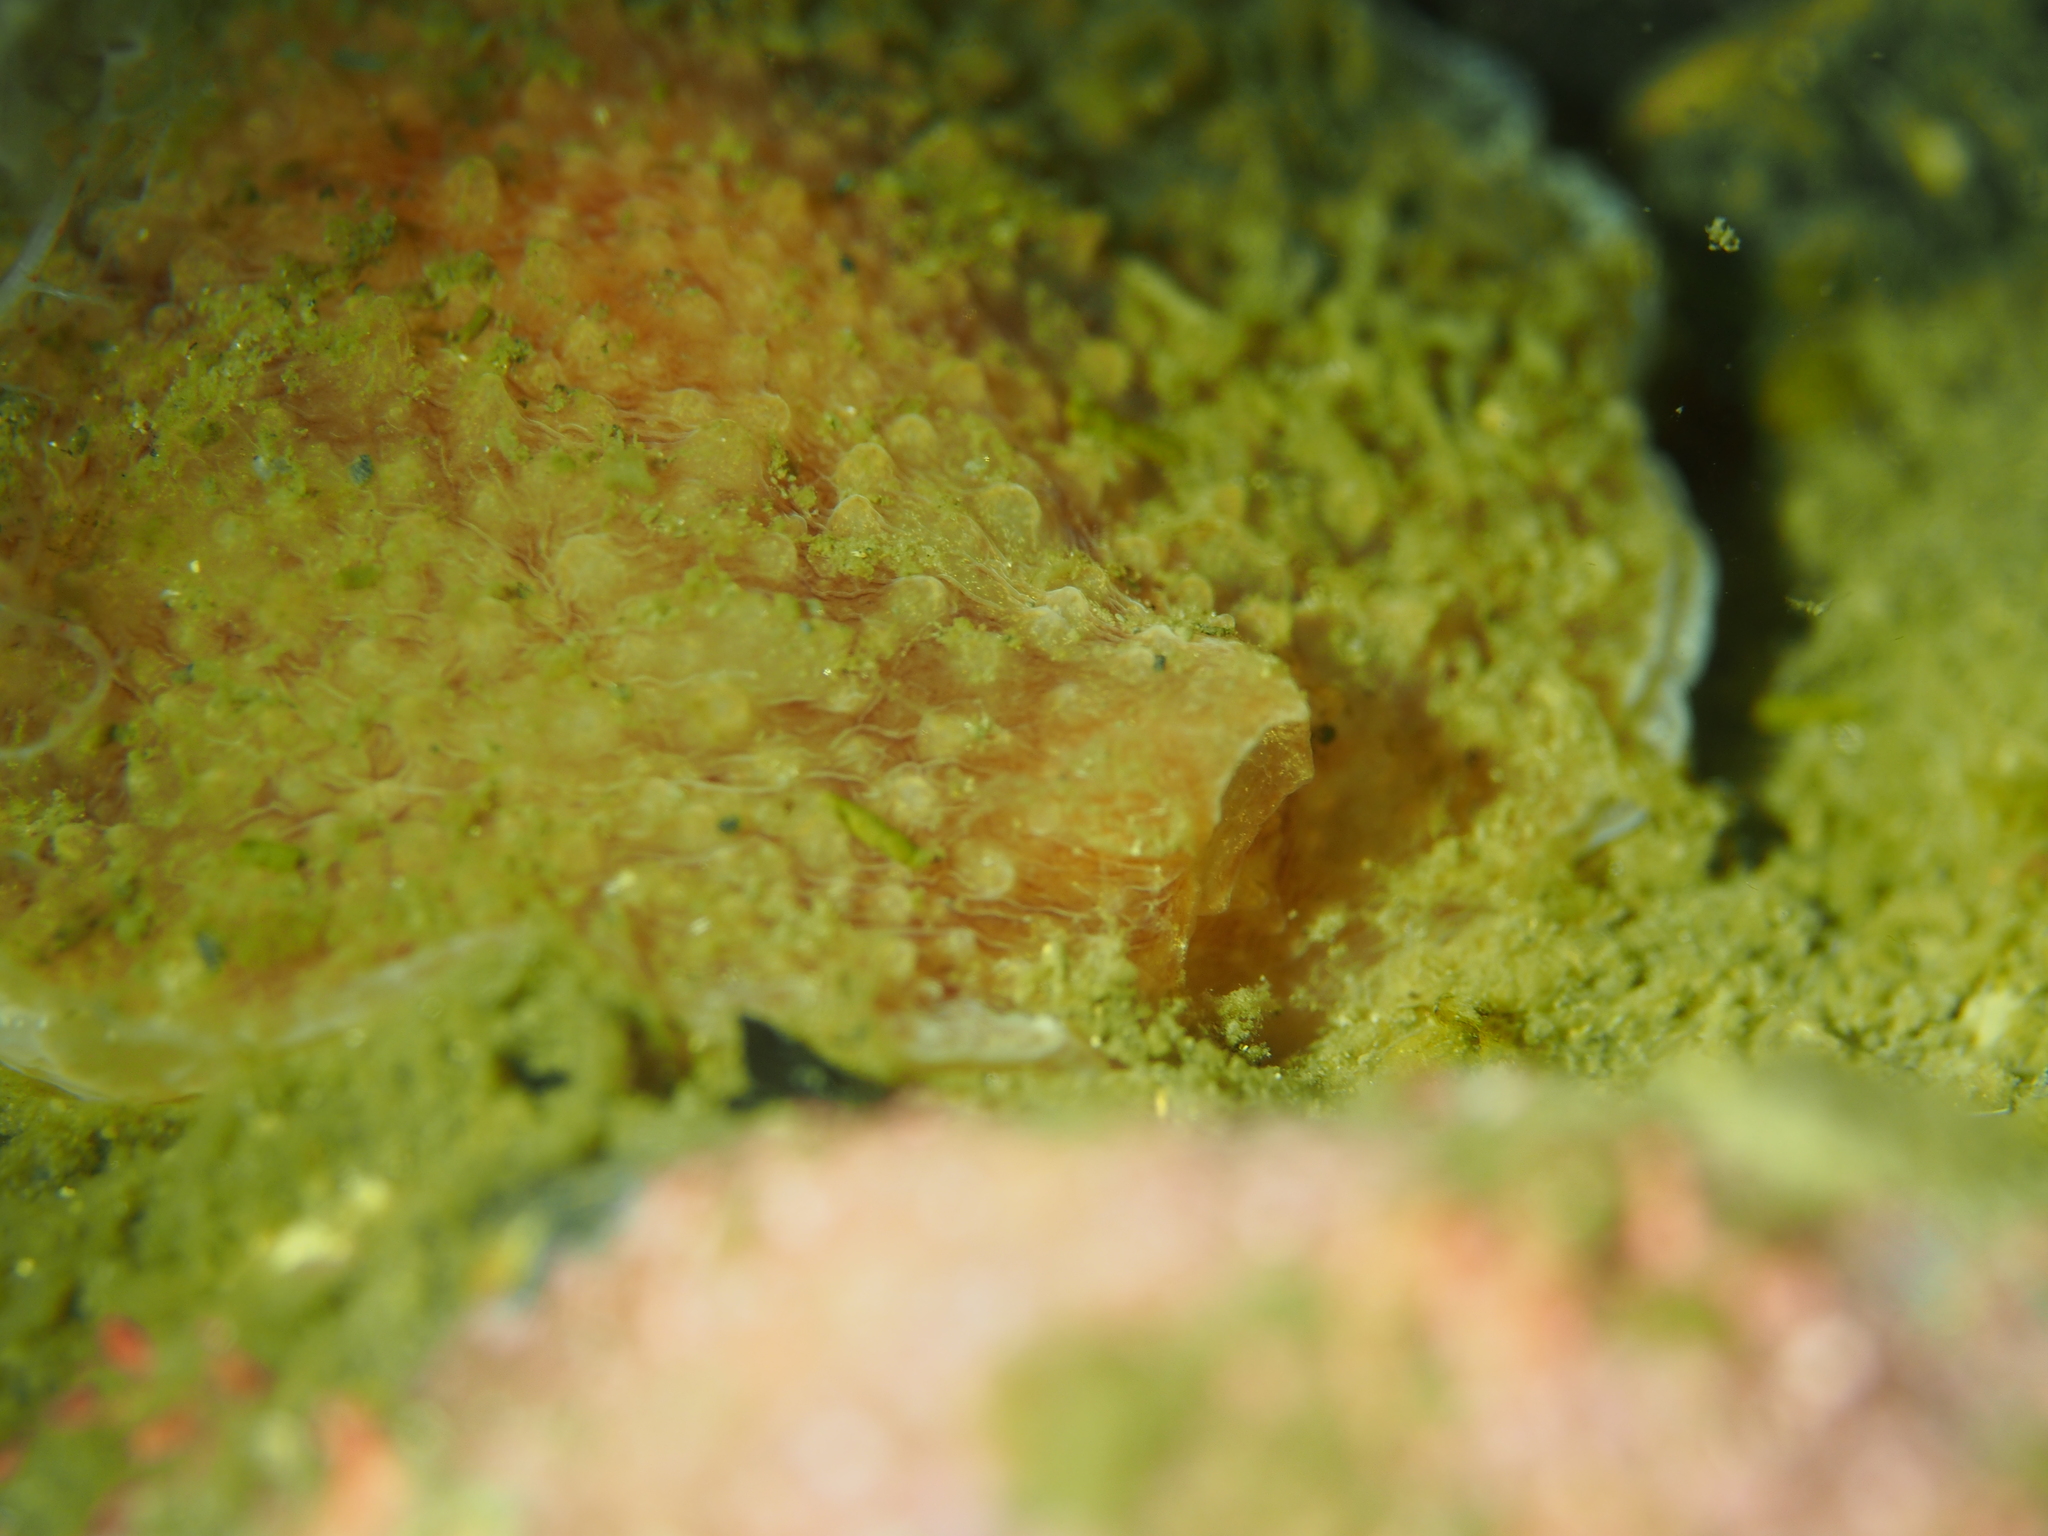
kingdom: Animalia
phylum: Mollusca
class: Gastropoda
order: Pleurobranchida
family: Pleurobranchidae
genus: Pleurobranchus
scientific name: Pleurobranchus membranaceus
